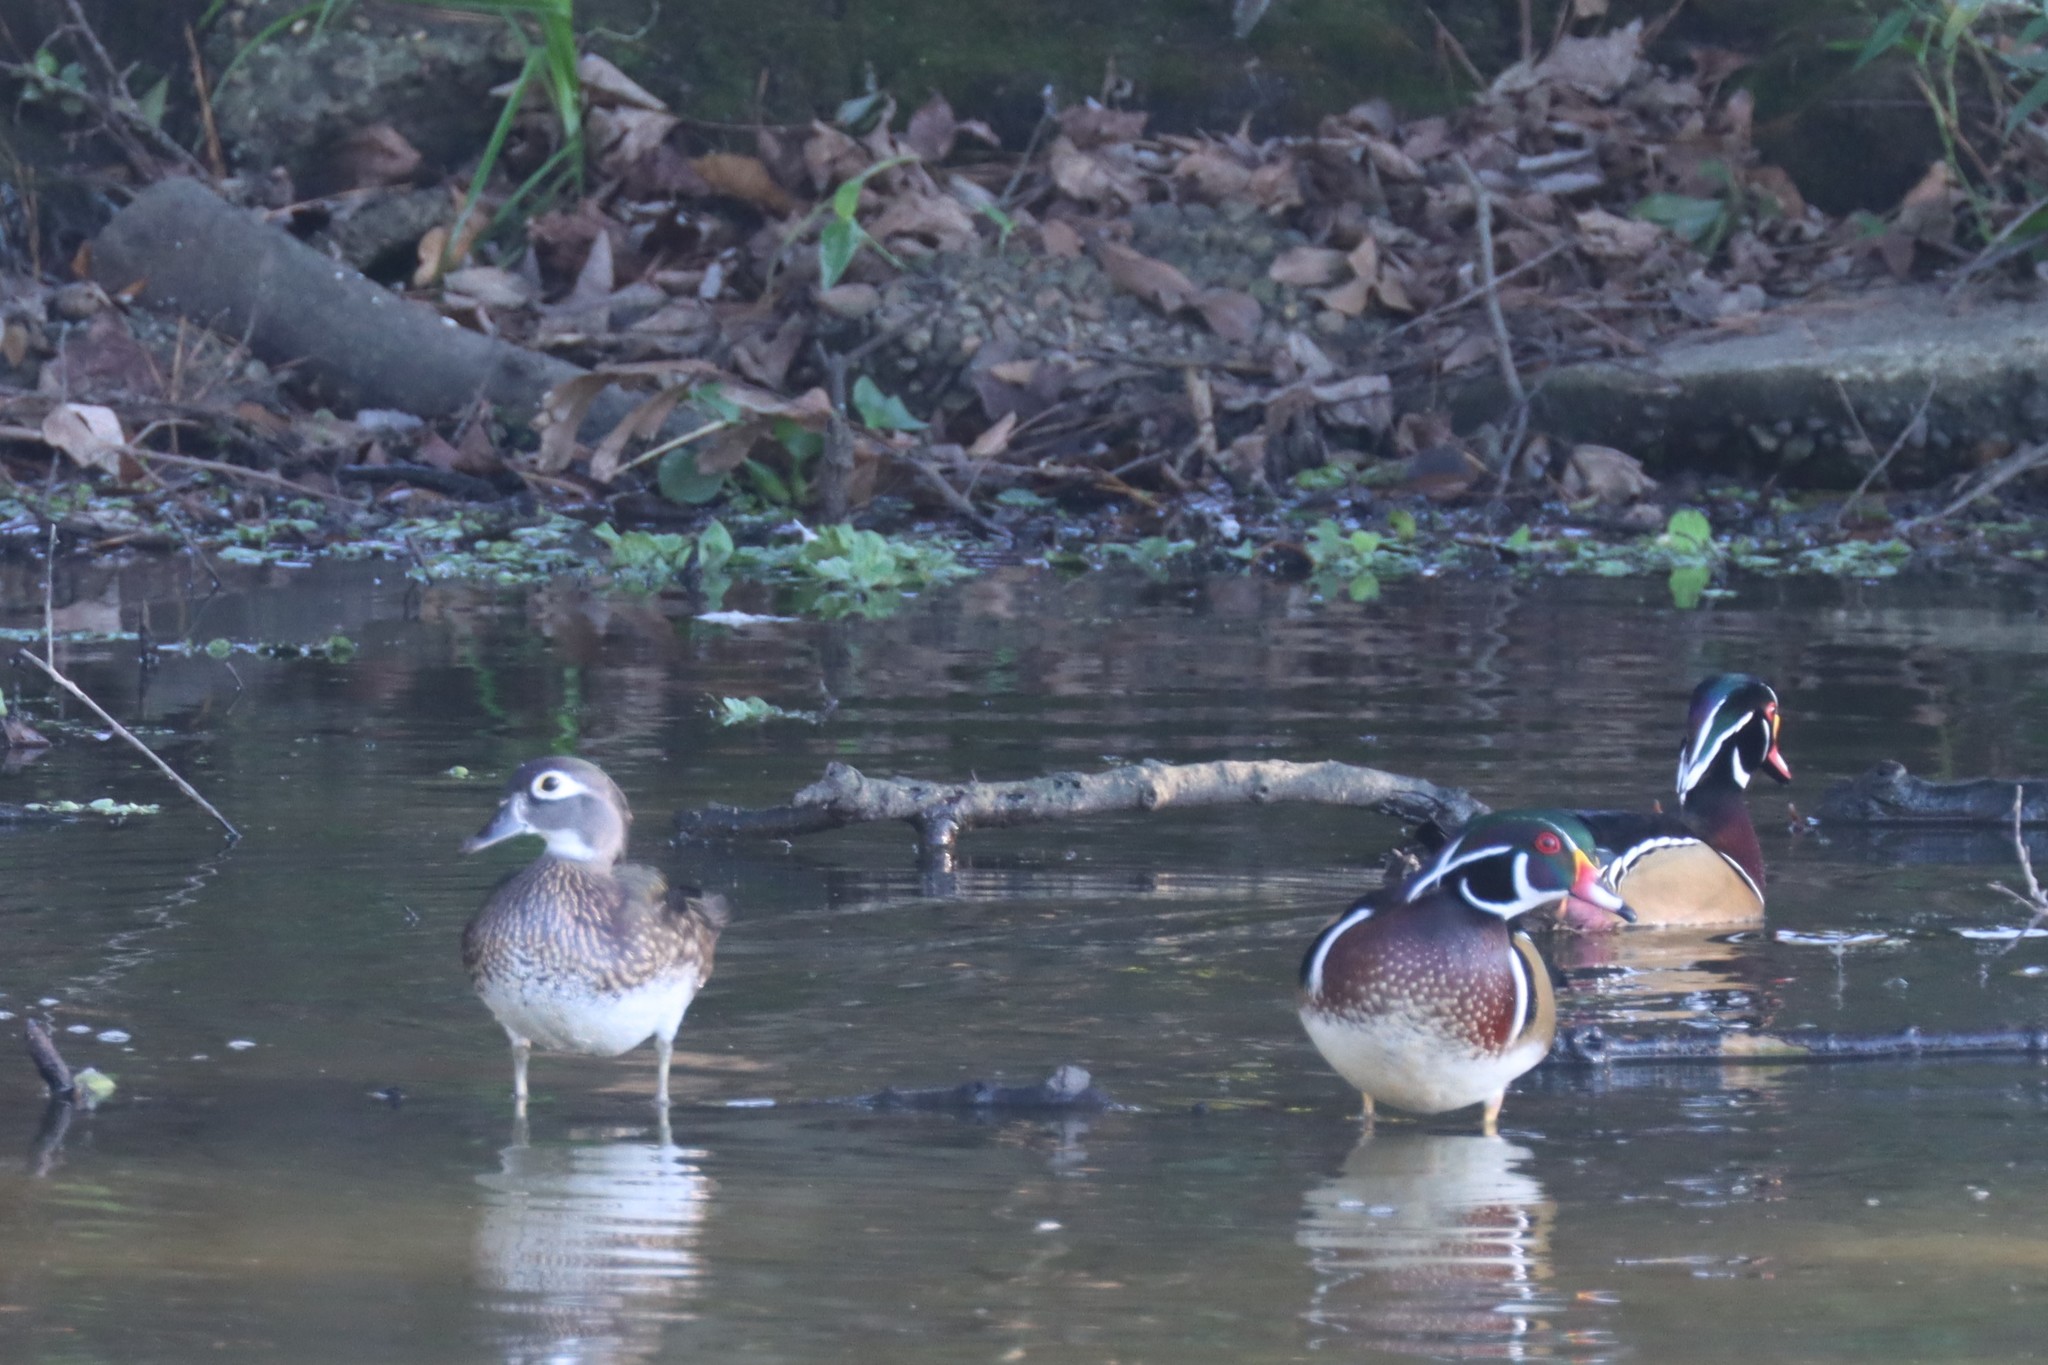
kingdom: Animalia
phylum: Chordata
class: Aves
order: Anseriformes
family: Anatidae
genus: Aix
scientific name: Aix sponsa
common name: Wood duck
